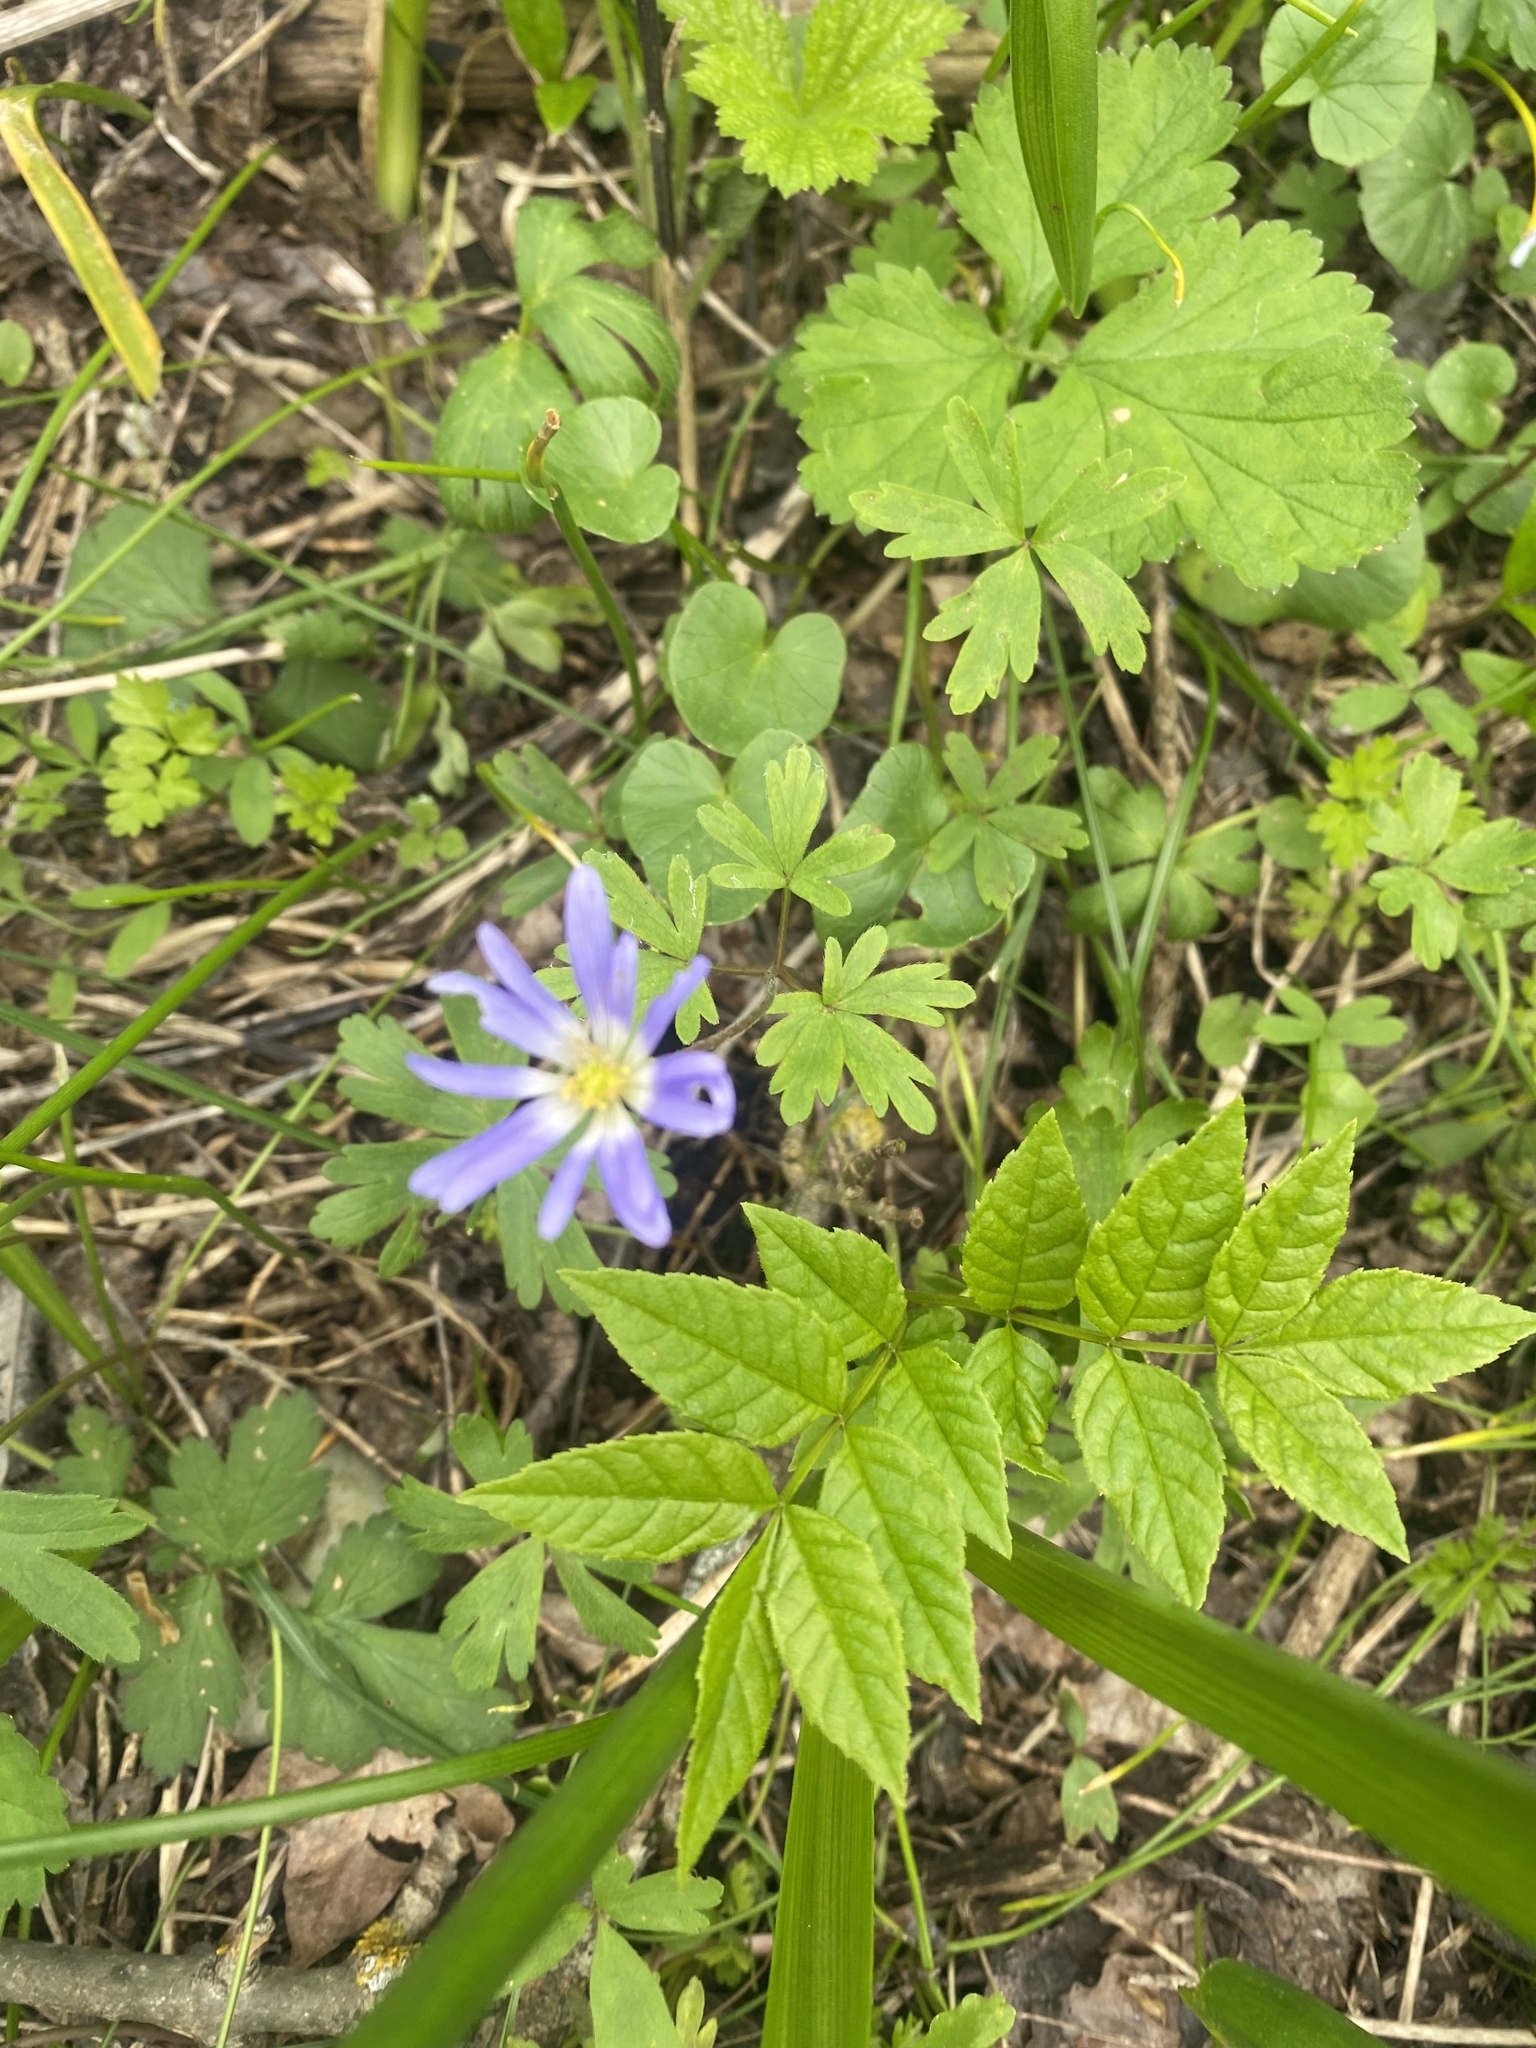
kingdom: Plantae
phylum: Tracheophyta
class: Magnoliopsida
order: Ranunculales
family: Ranunculaceae
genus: Anemone
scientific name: Anemone blanda
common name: Balkan anemone
